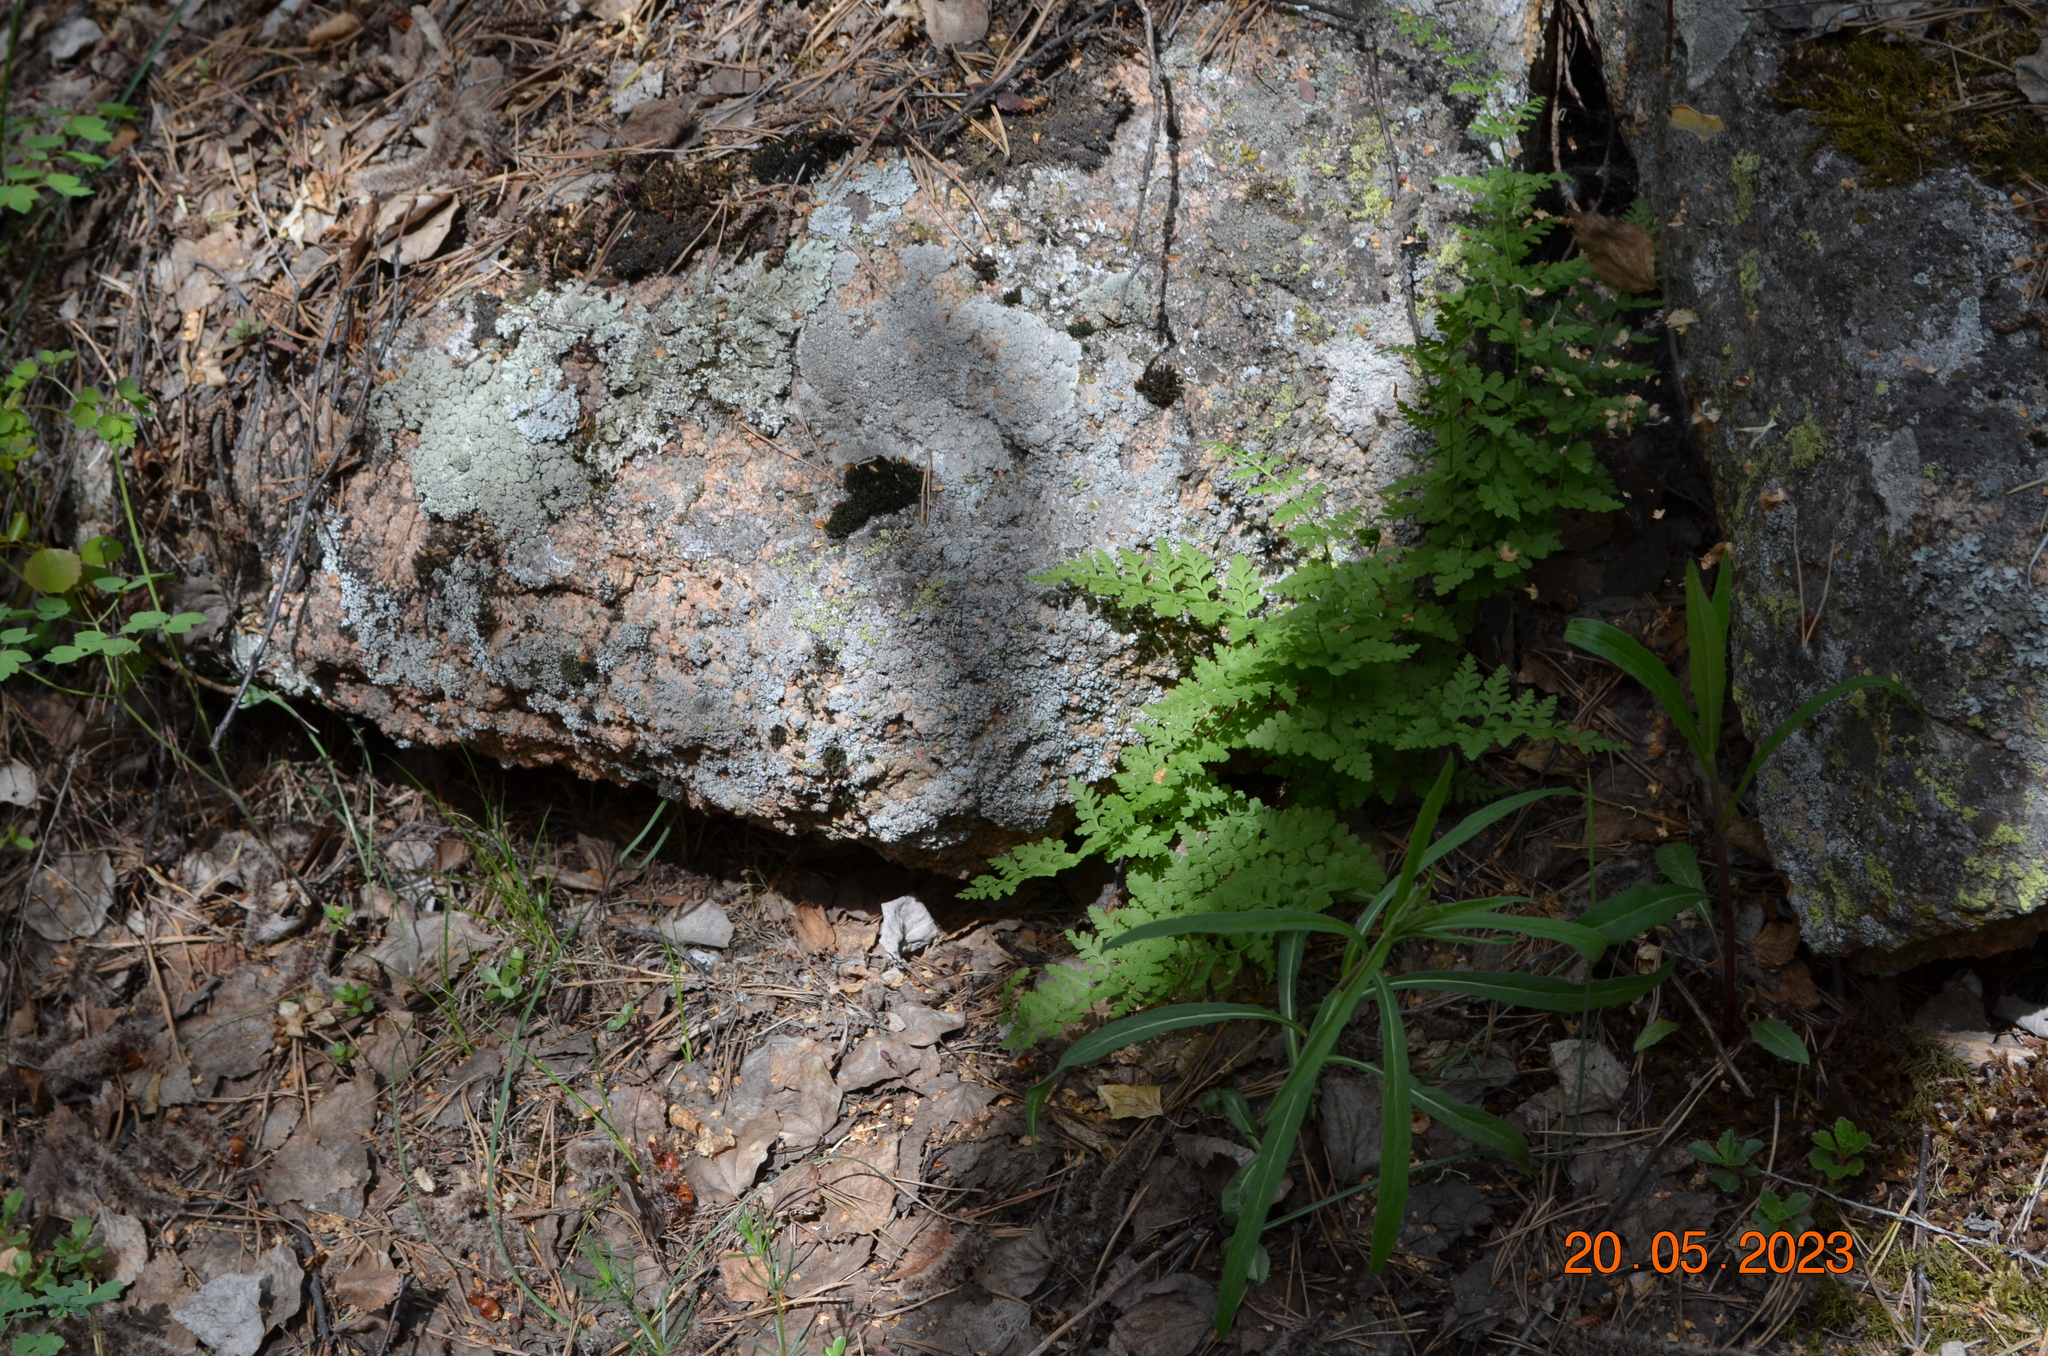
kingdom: Plantae
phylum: Tracheophyta
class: Polypodiopsida
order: Polypodiales
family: Cystopteridaceae
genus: Cystopteris
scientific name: Cystopteris fragilis
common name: Brittle bladder fern
